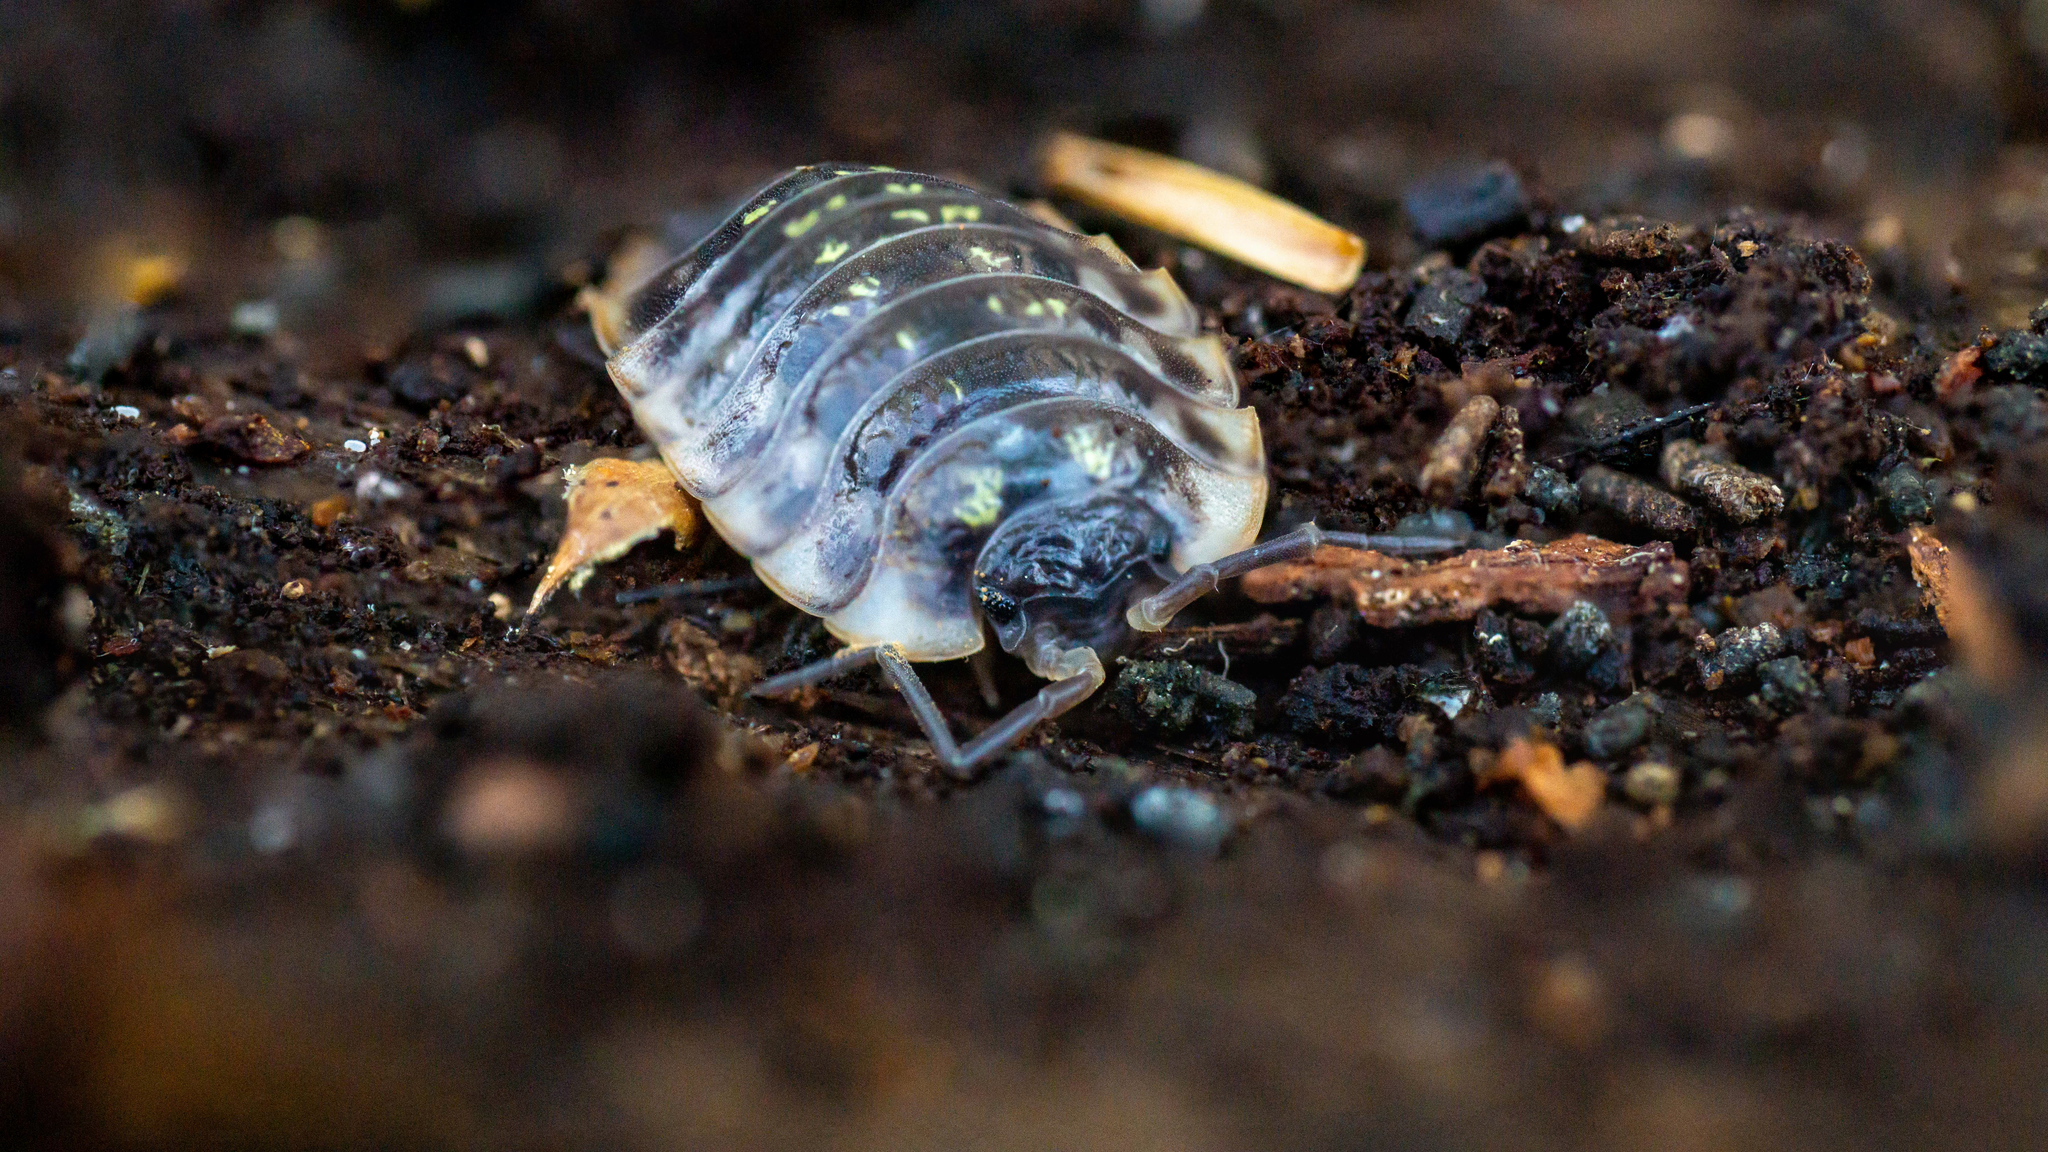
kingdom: Animalia
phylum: Arthropoda
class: Malacostraca
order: Isopoda
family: Oniscidae
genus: Oniscus
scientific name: Oniscus asellus
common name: Common shiny woodlouse
